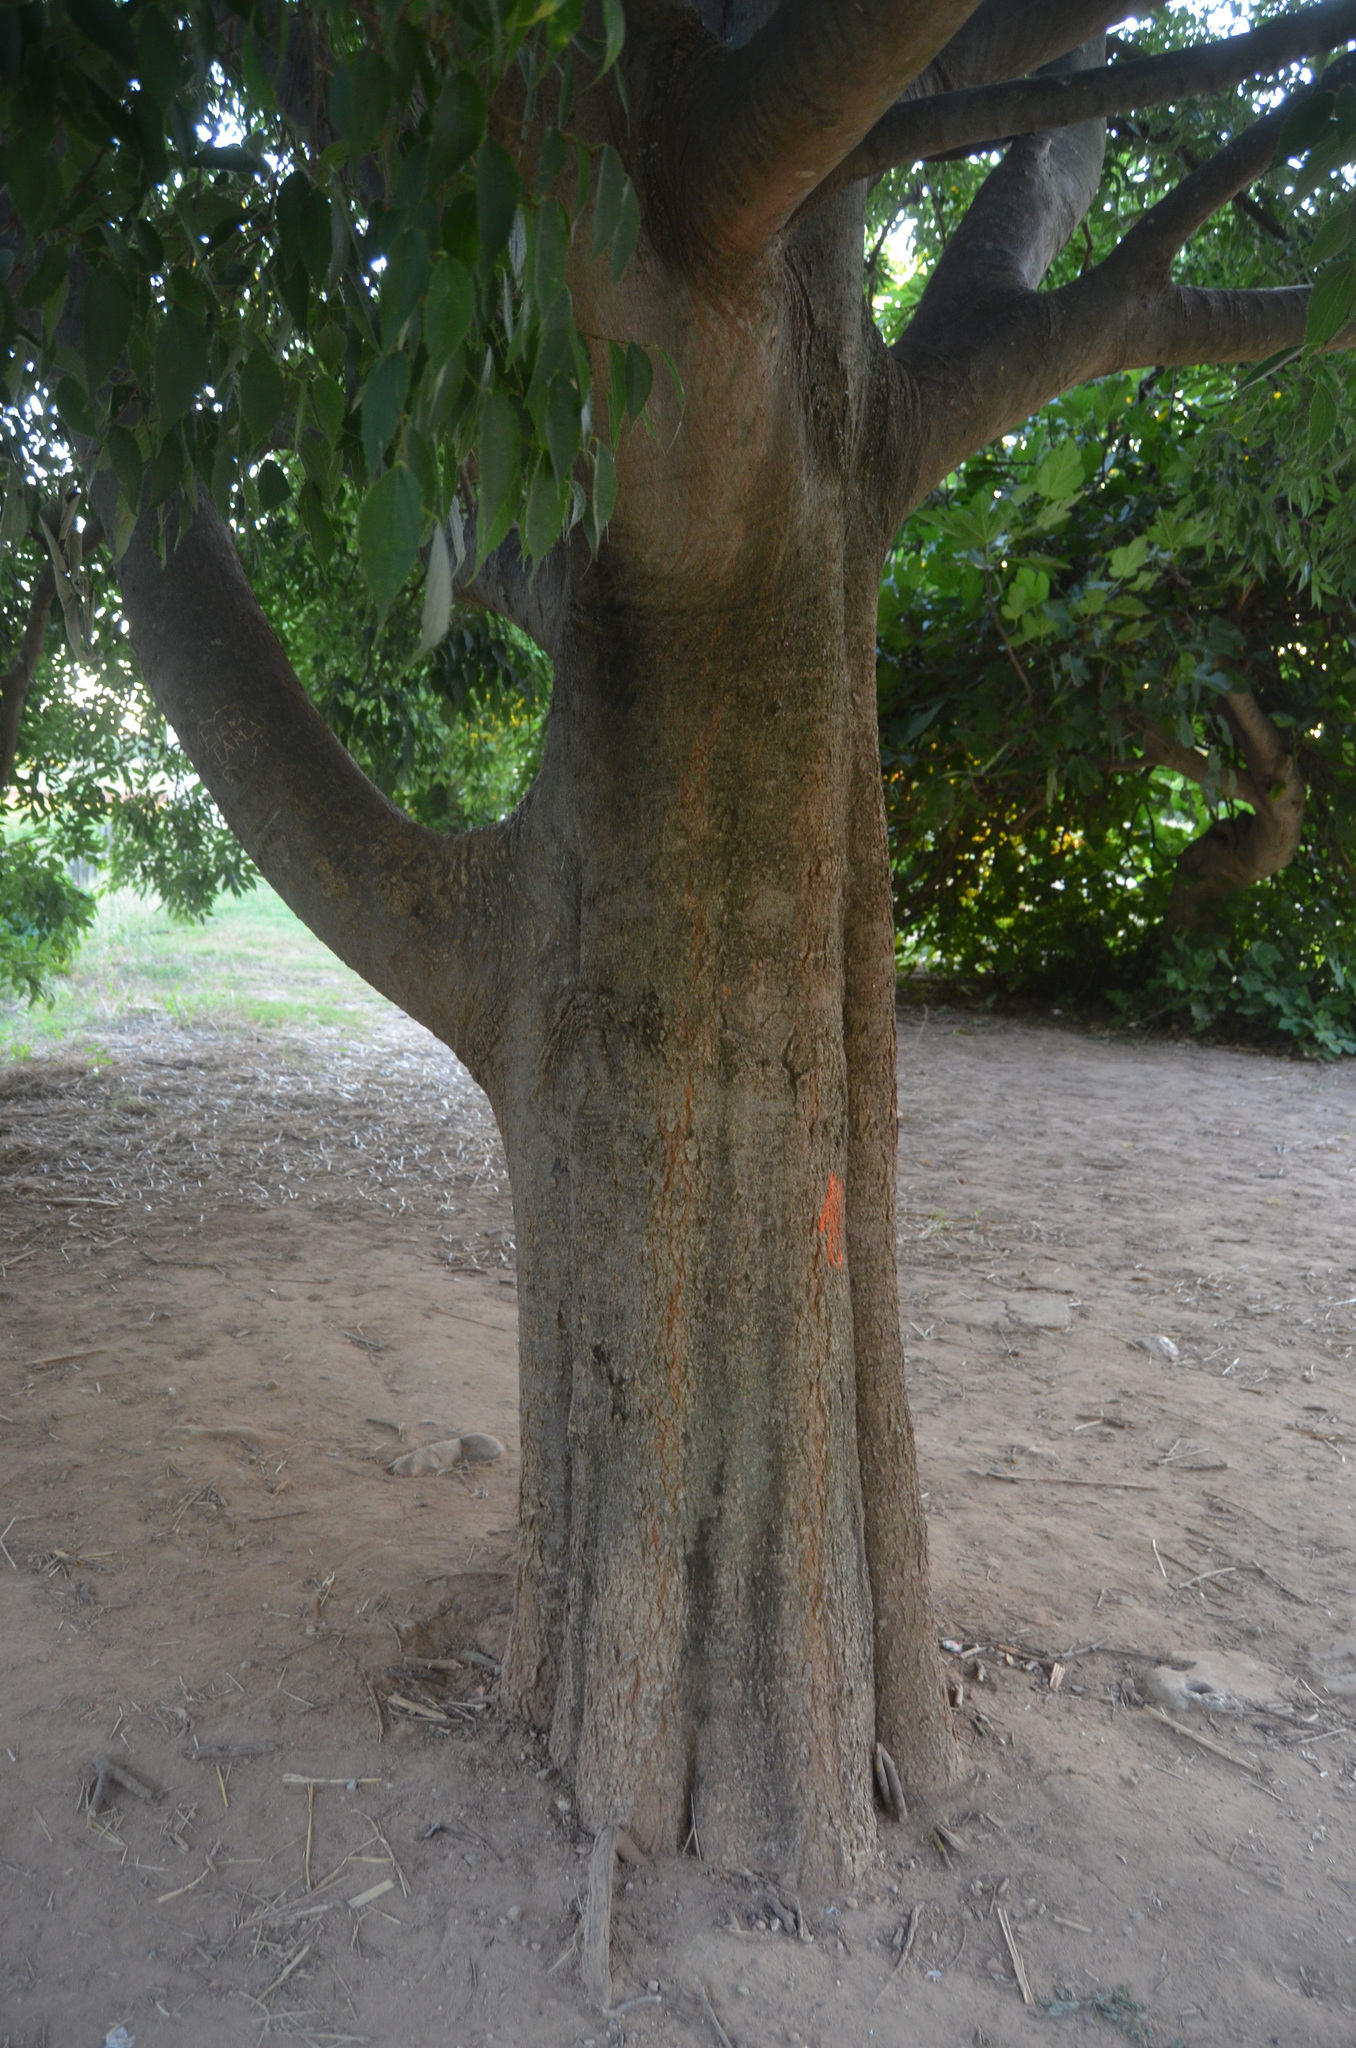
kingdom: Plantae
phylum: Tracheophyta
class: Magnoliopsida
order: Rosales
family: Cannabaceae
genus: Celtis
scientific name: Celtis australis
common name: European hackberry
